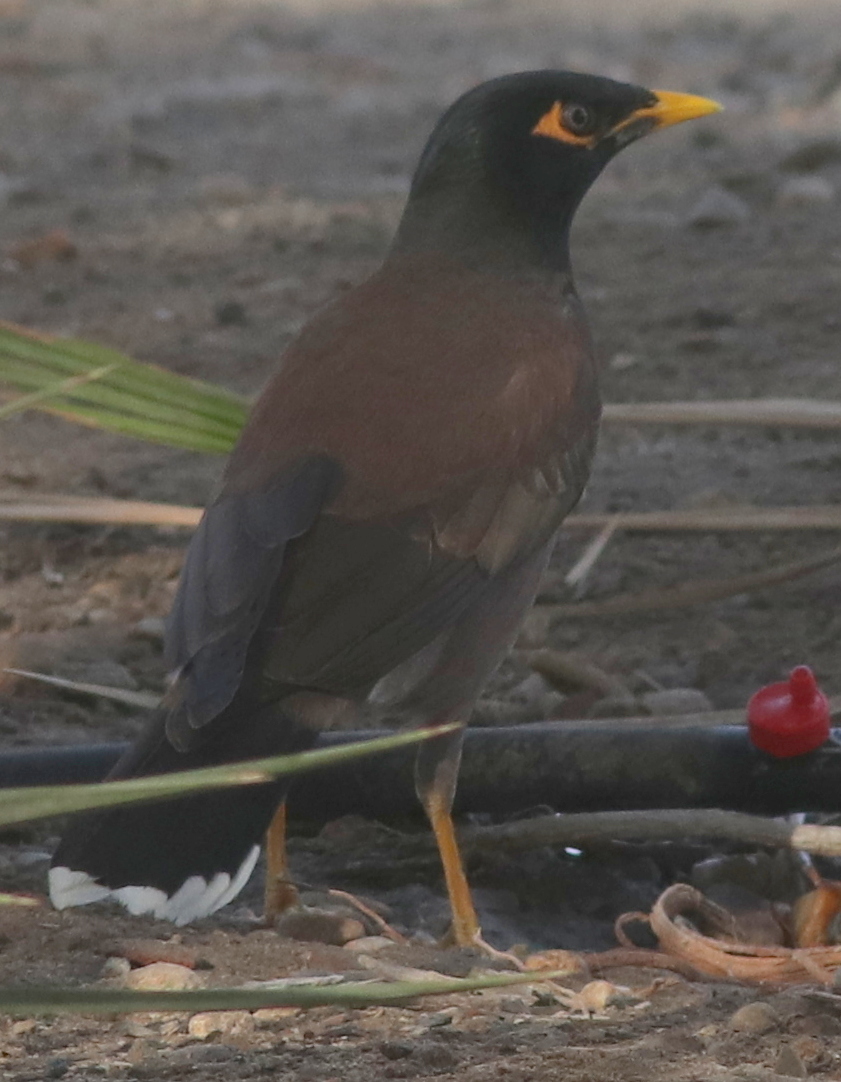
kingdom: Animalia
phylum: Chordata
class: Aves
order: Passeriformes
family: Sturnidae
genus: Acridotheres
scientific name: Acridotheres tristis
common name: Common myna
